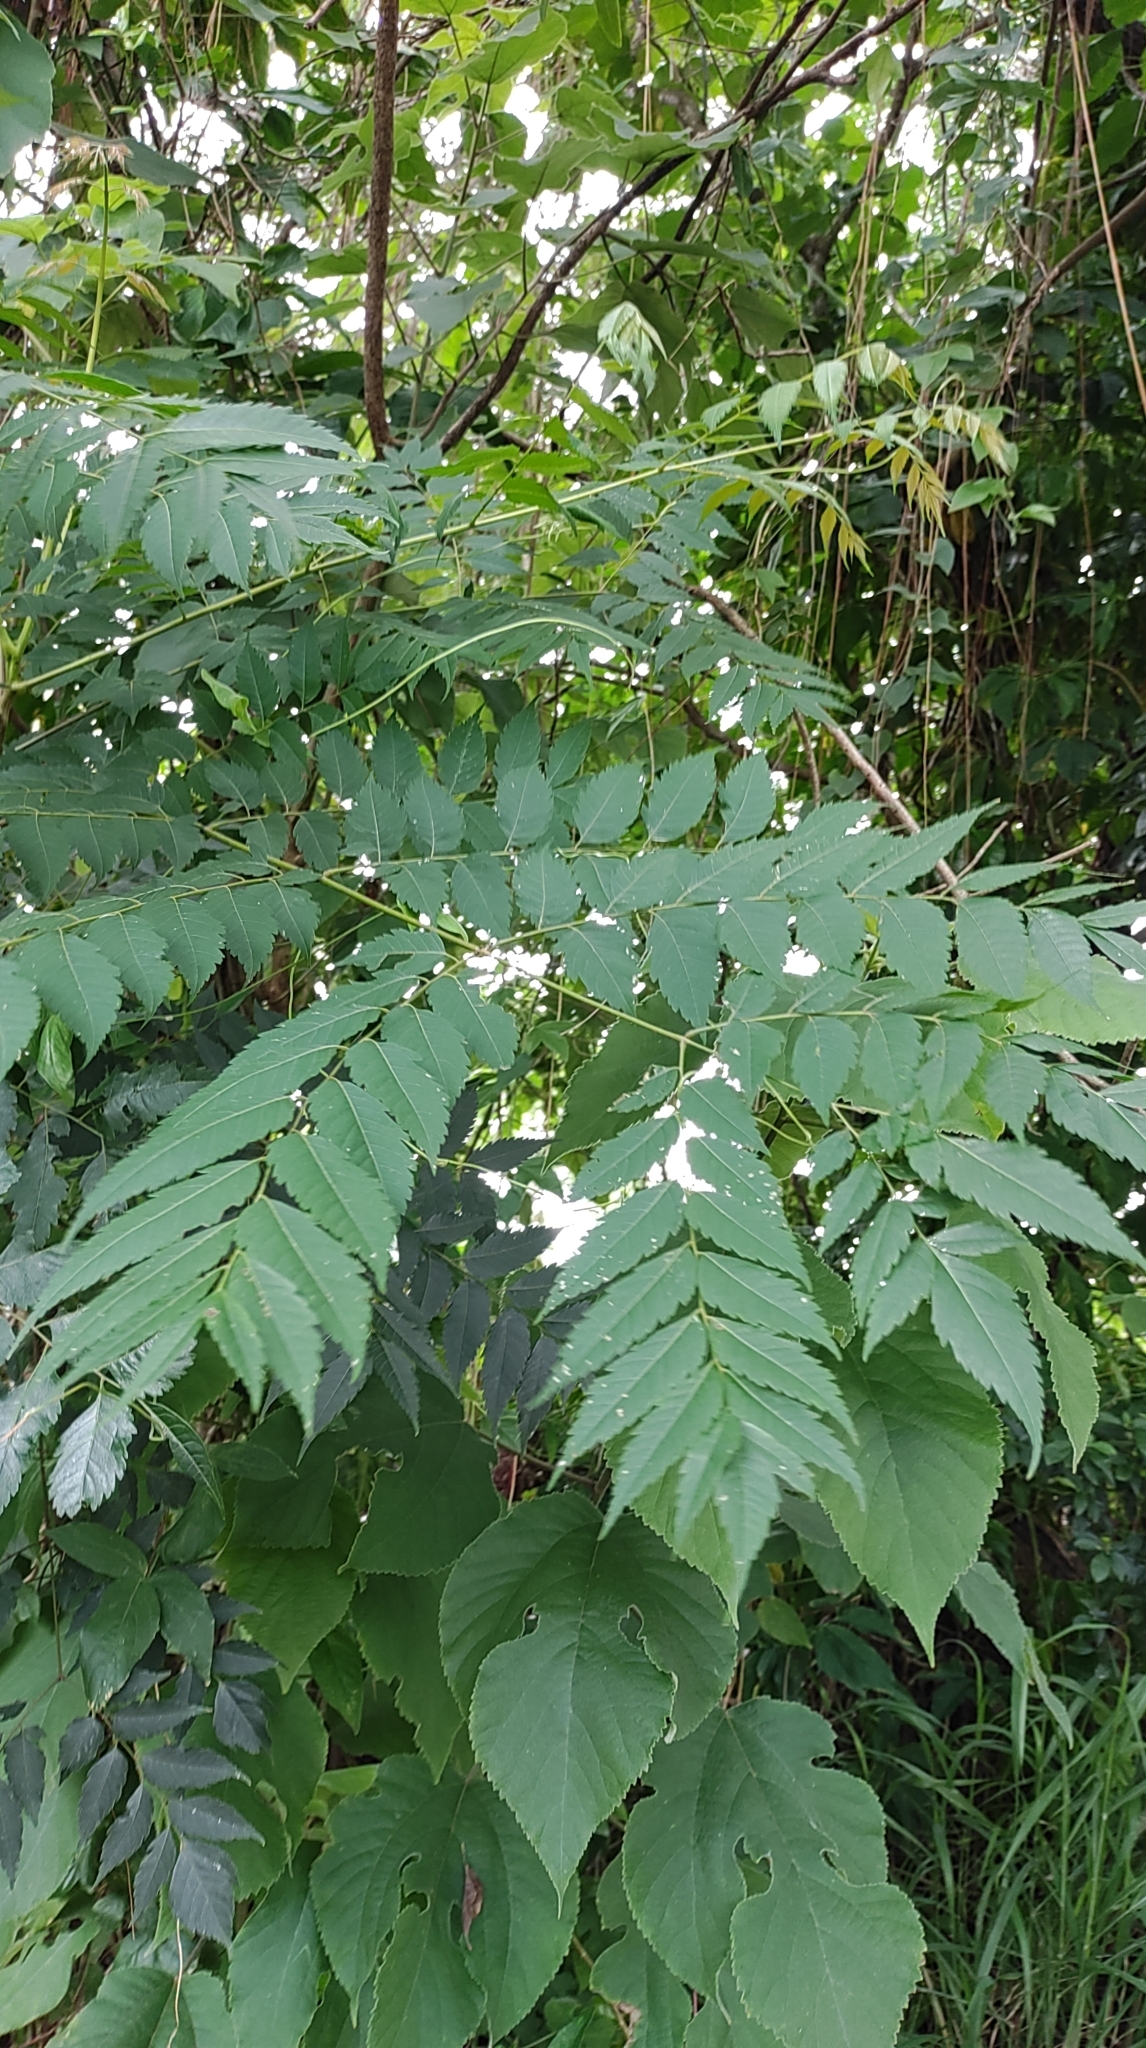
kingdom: Plantae
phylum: Tracheophyta
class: Magnoliopsida
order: Sapindales
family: Sapindaceae
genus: Koelreuteria
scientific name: Koelreuteria elegans
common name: Chinese flame tree
